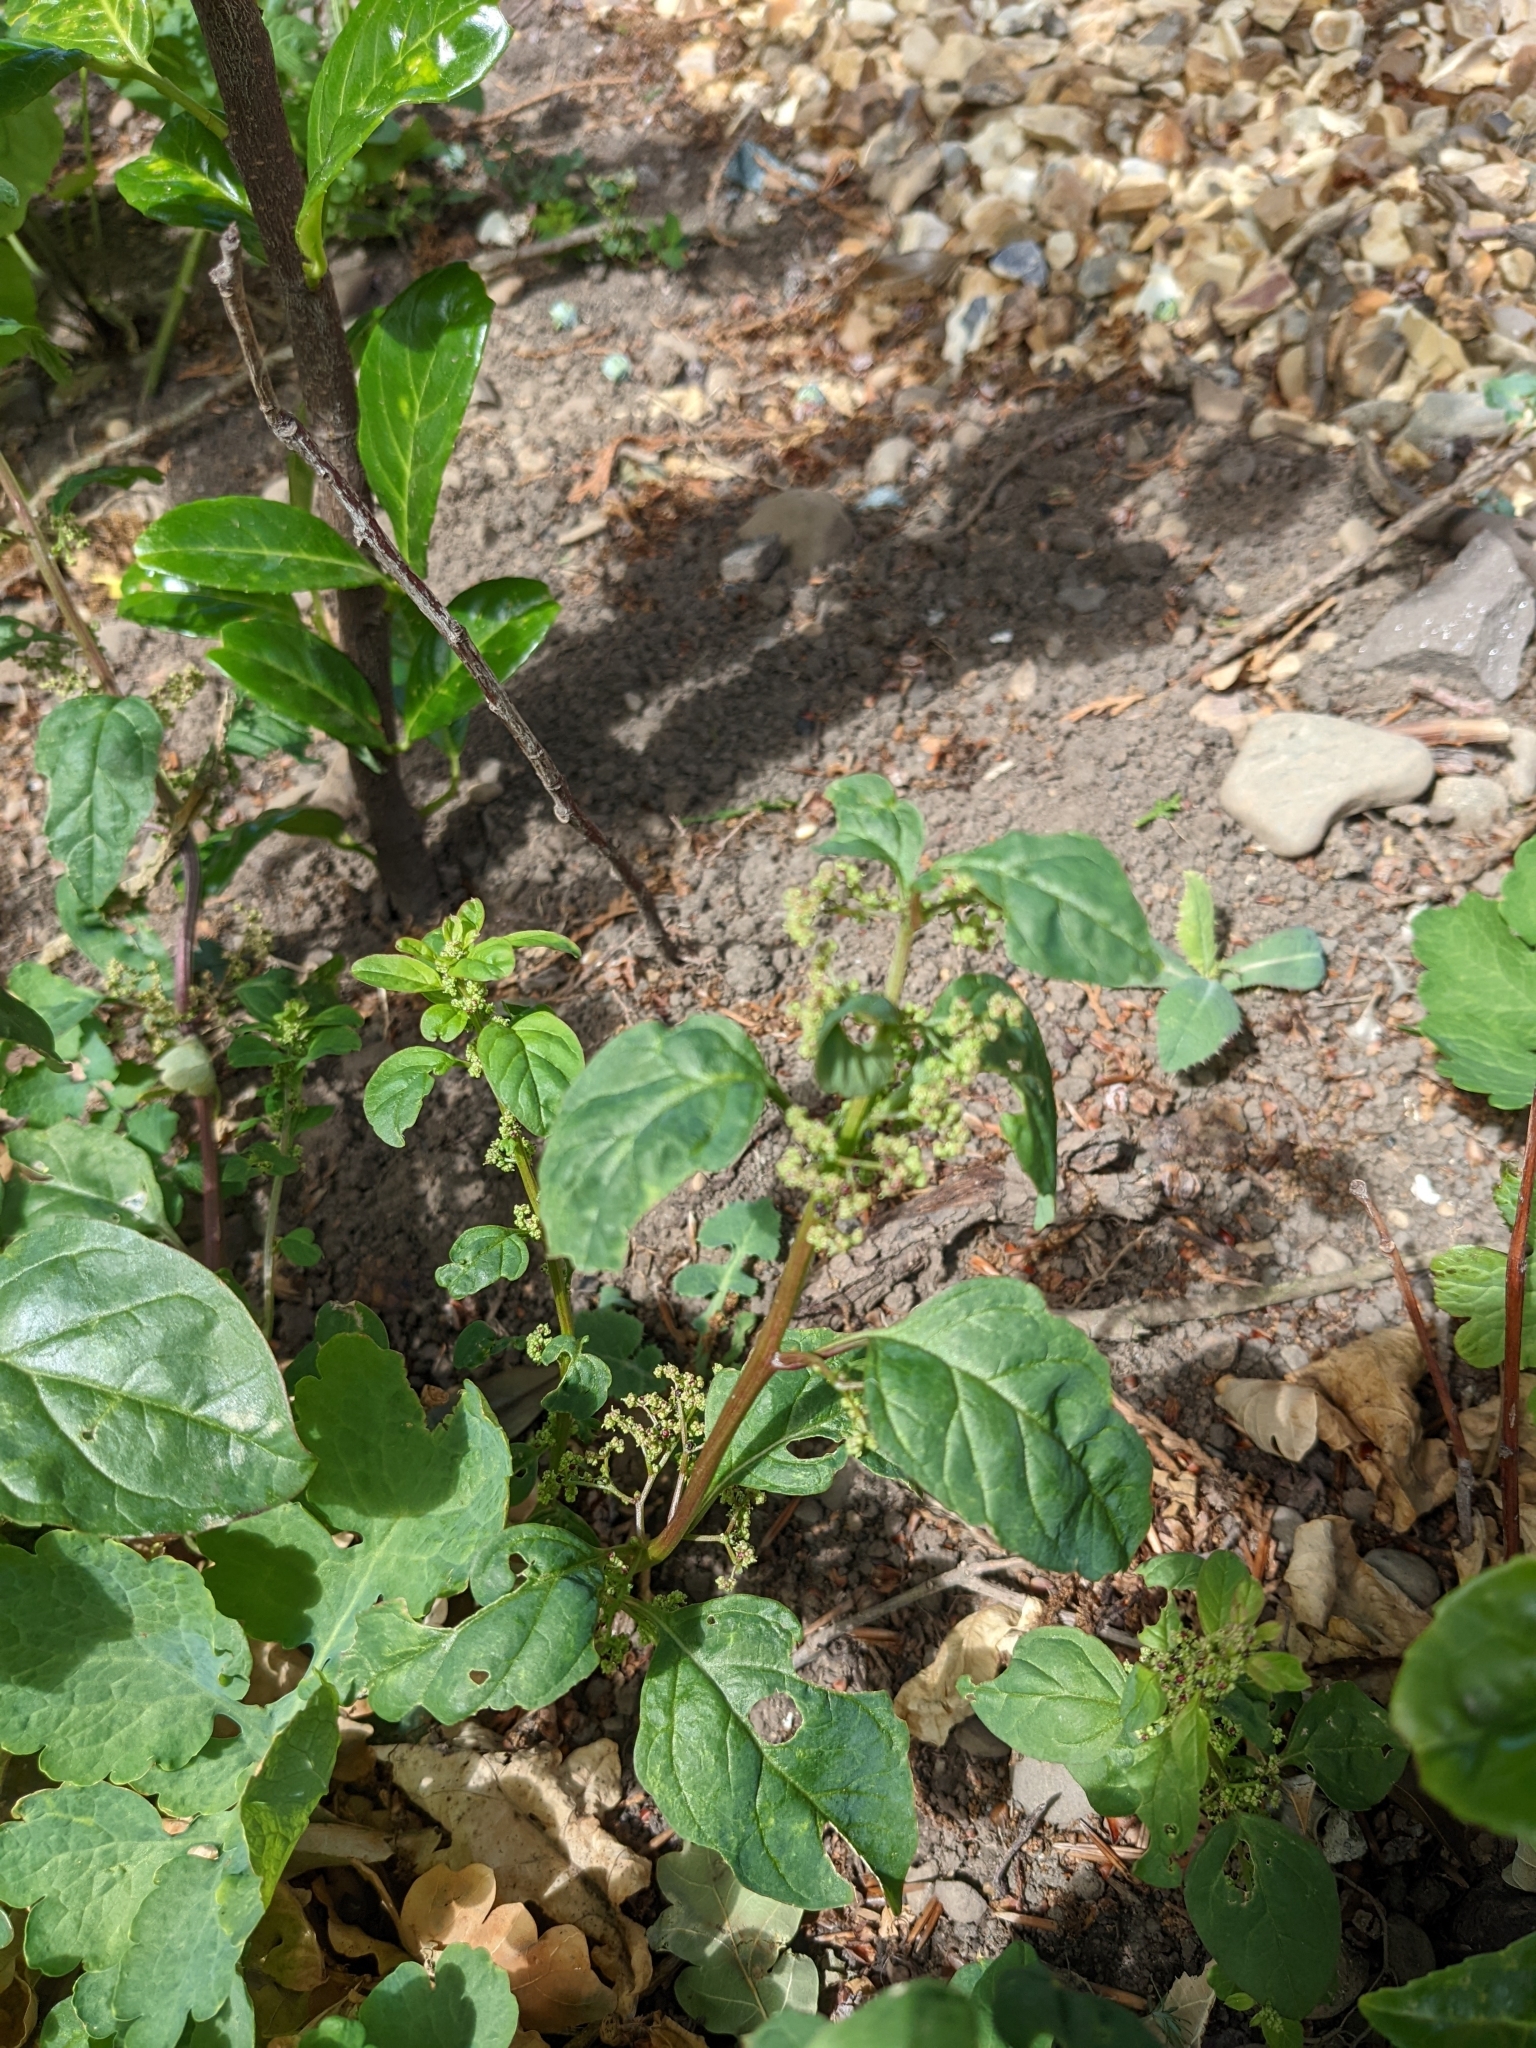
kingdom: Plantae
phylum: Tracheophyta
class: Magnoliopsida
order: Caryophyllales
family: Amaranthaceae
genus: Lipandra
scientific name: Lipandra polysperma
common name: Many-seed goosefoot
